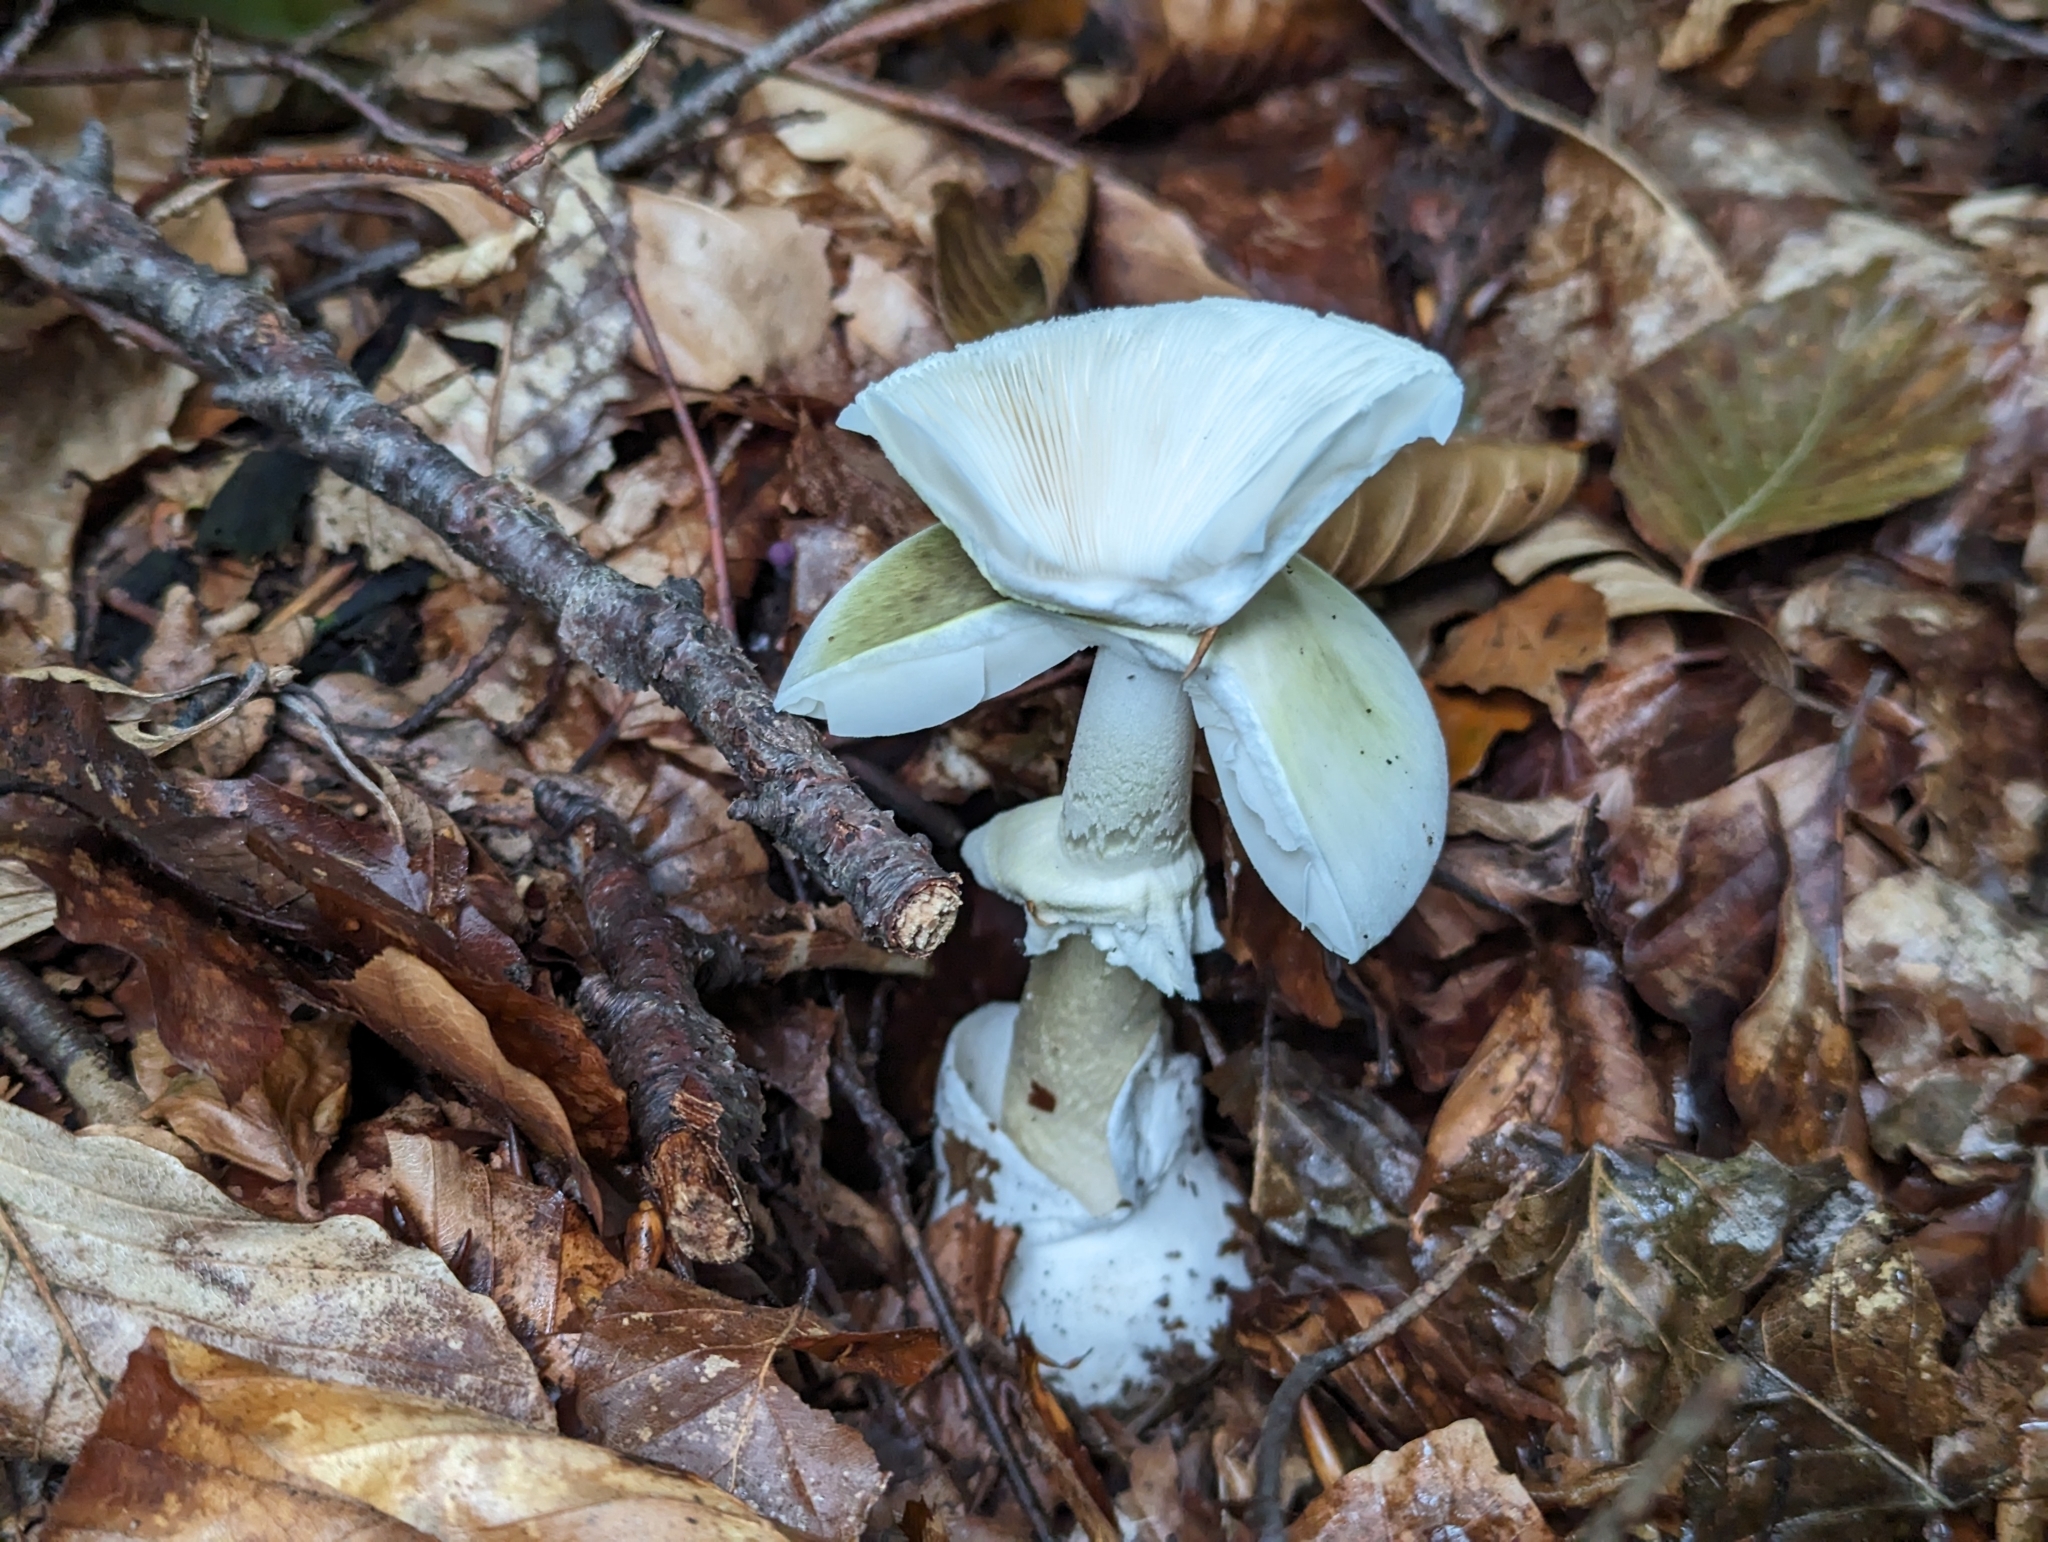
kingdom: Fungi
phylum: Basidiomycota
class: Agaricomycetes
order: Agaricales
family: Amanitaceae
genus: Amanita
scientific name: Amanita phalloides
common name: Death cap
